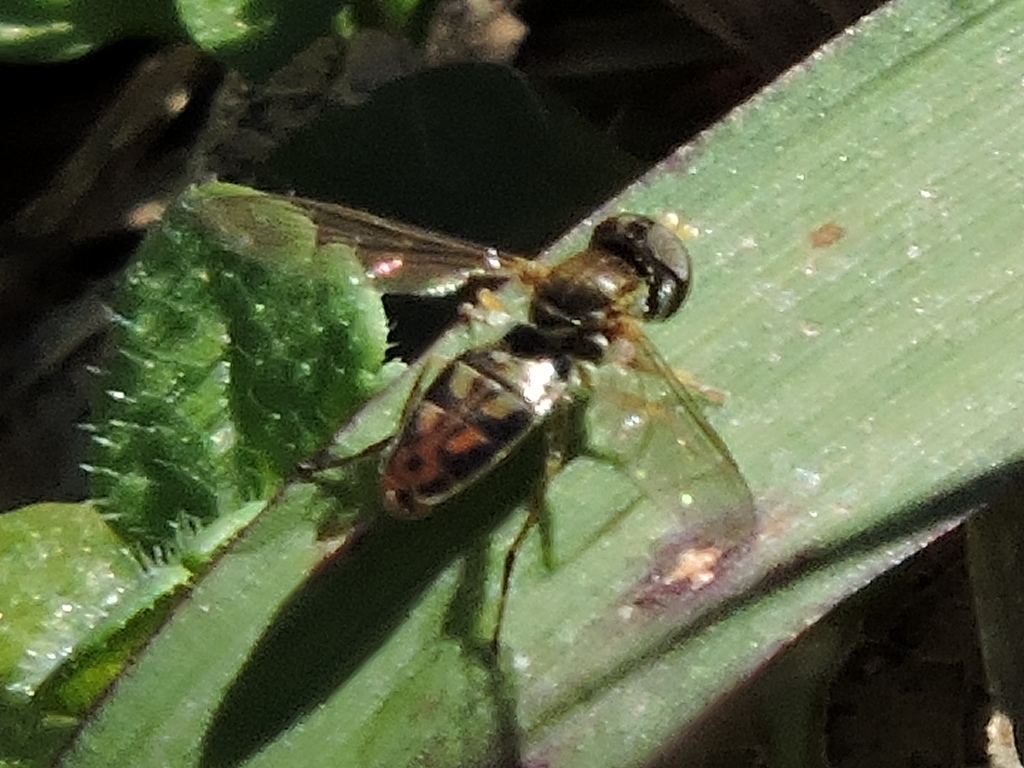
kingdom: Animalia
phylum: Arthropoda
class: Insecta
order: Diptera
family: Syrphidae
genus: Toxomerus
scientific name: Toxomerus marginatus
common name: Syrphid fly
